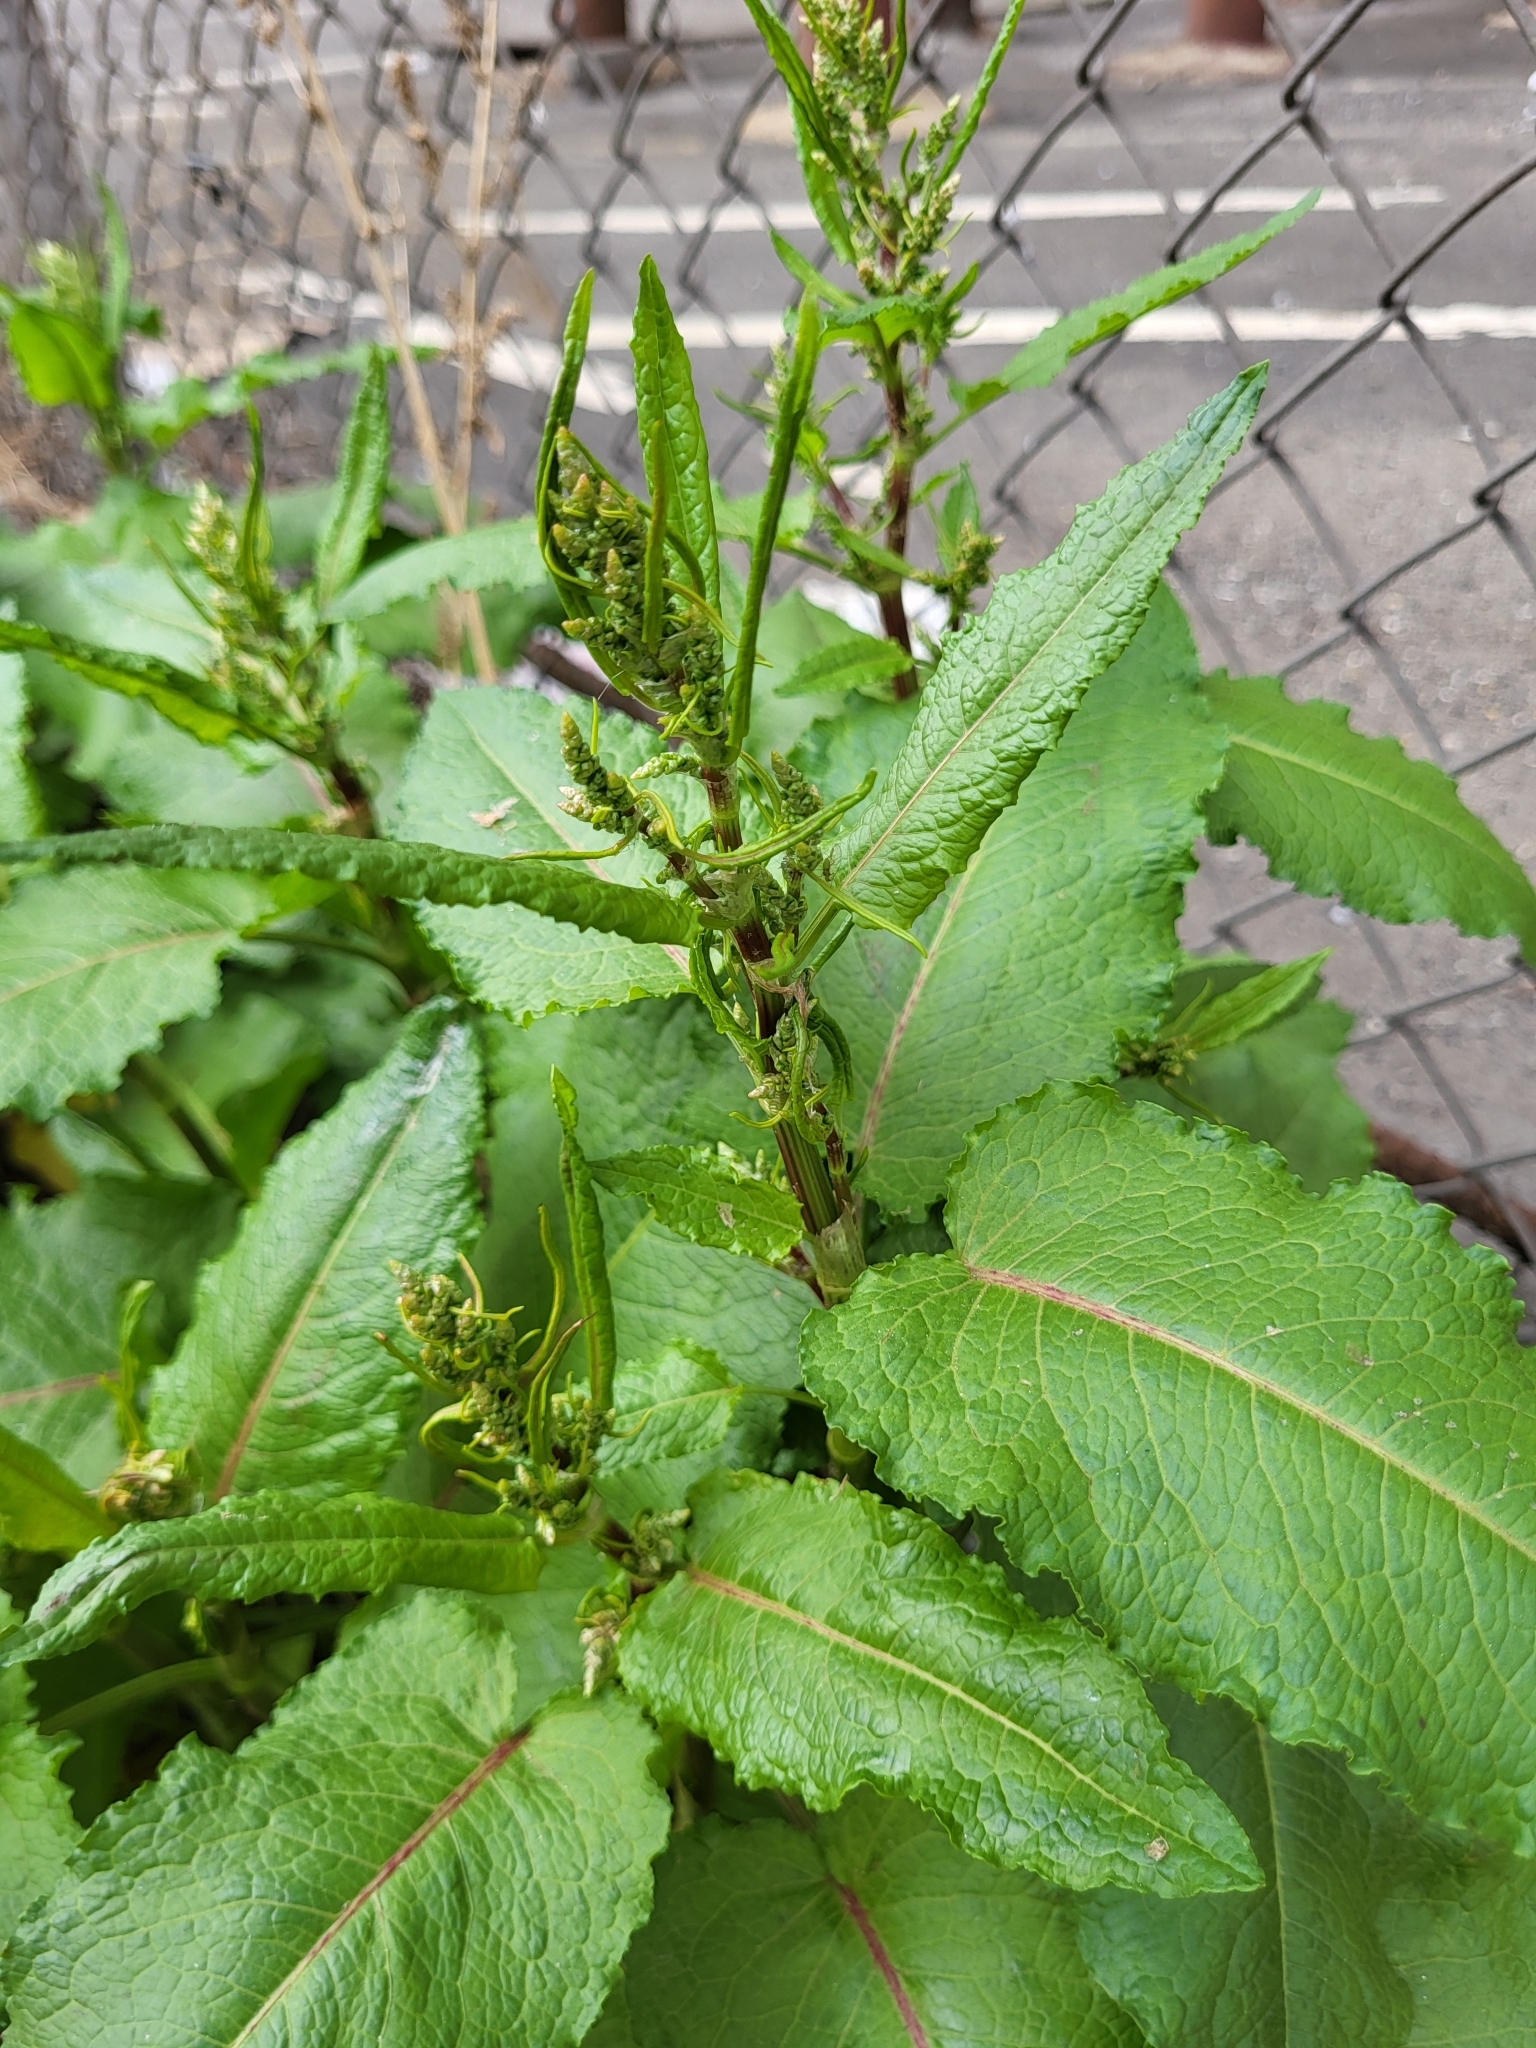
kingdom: Plantae
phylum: Tracheophyta
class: Magnoliopsida
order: Caryophyllales
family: Polygonaceae
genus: Rumex
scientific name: Rumex obtusifolius
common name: Bitter dock
